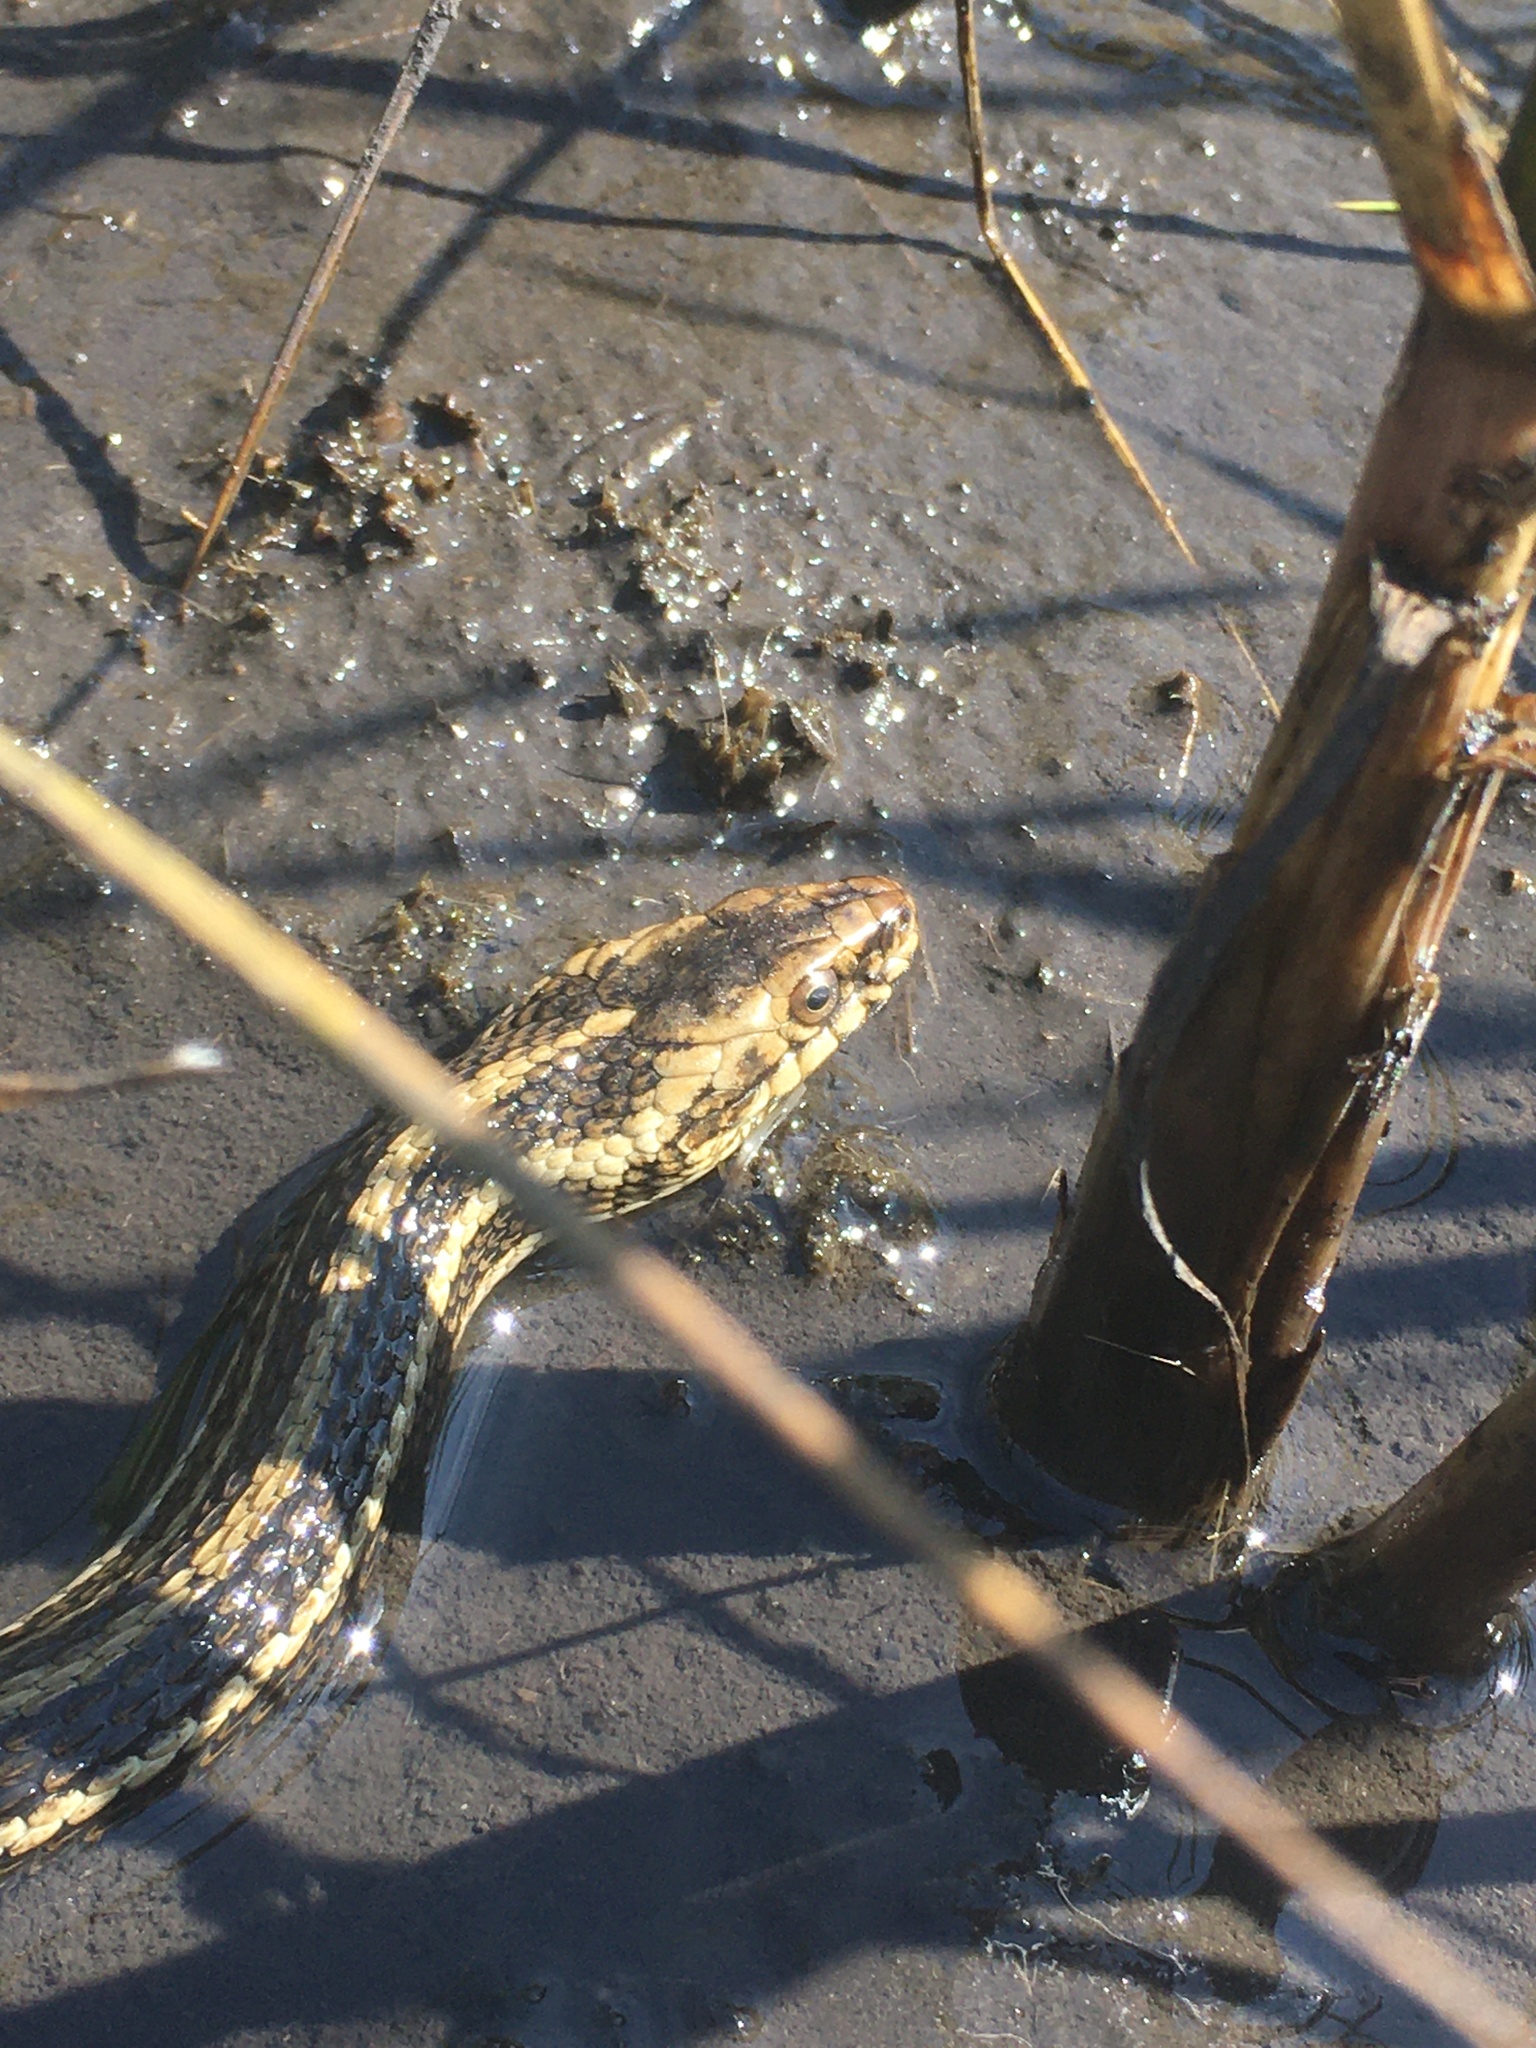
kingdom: Animalia
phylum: Chordata
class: Squamata
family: Colubridae
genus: Nerodia
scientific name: Nerodia clarkii
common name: Atlantic saltmarsh snake
